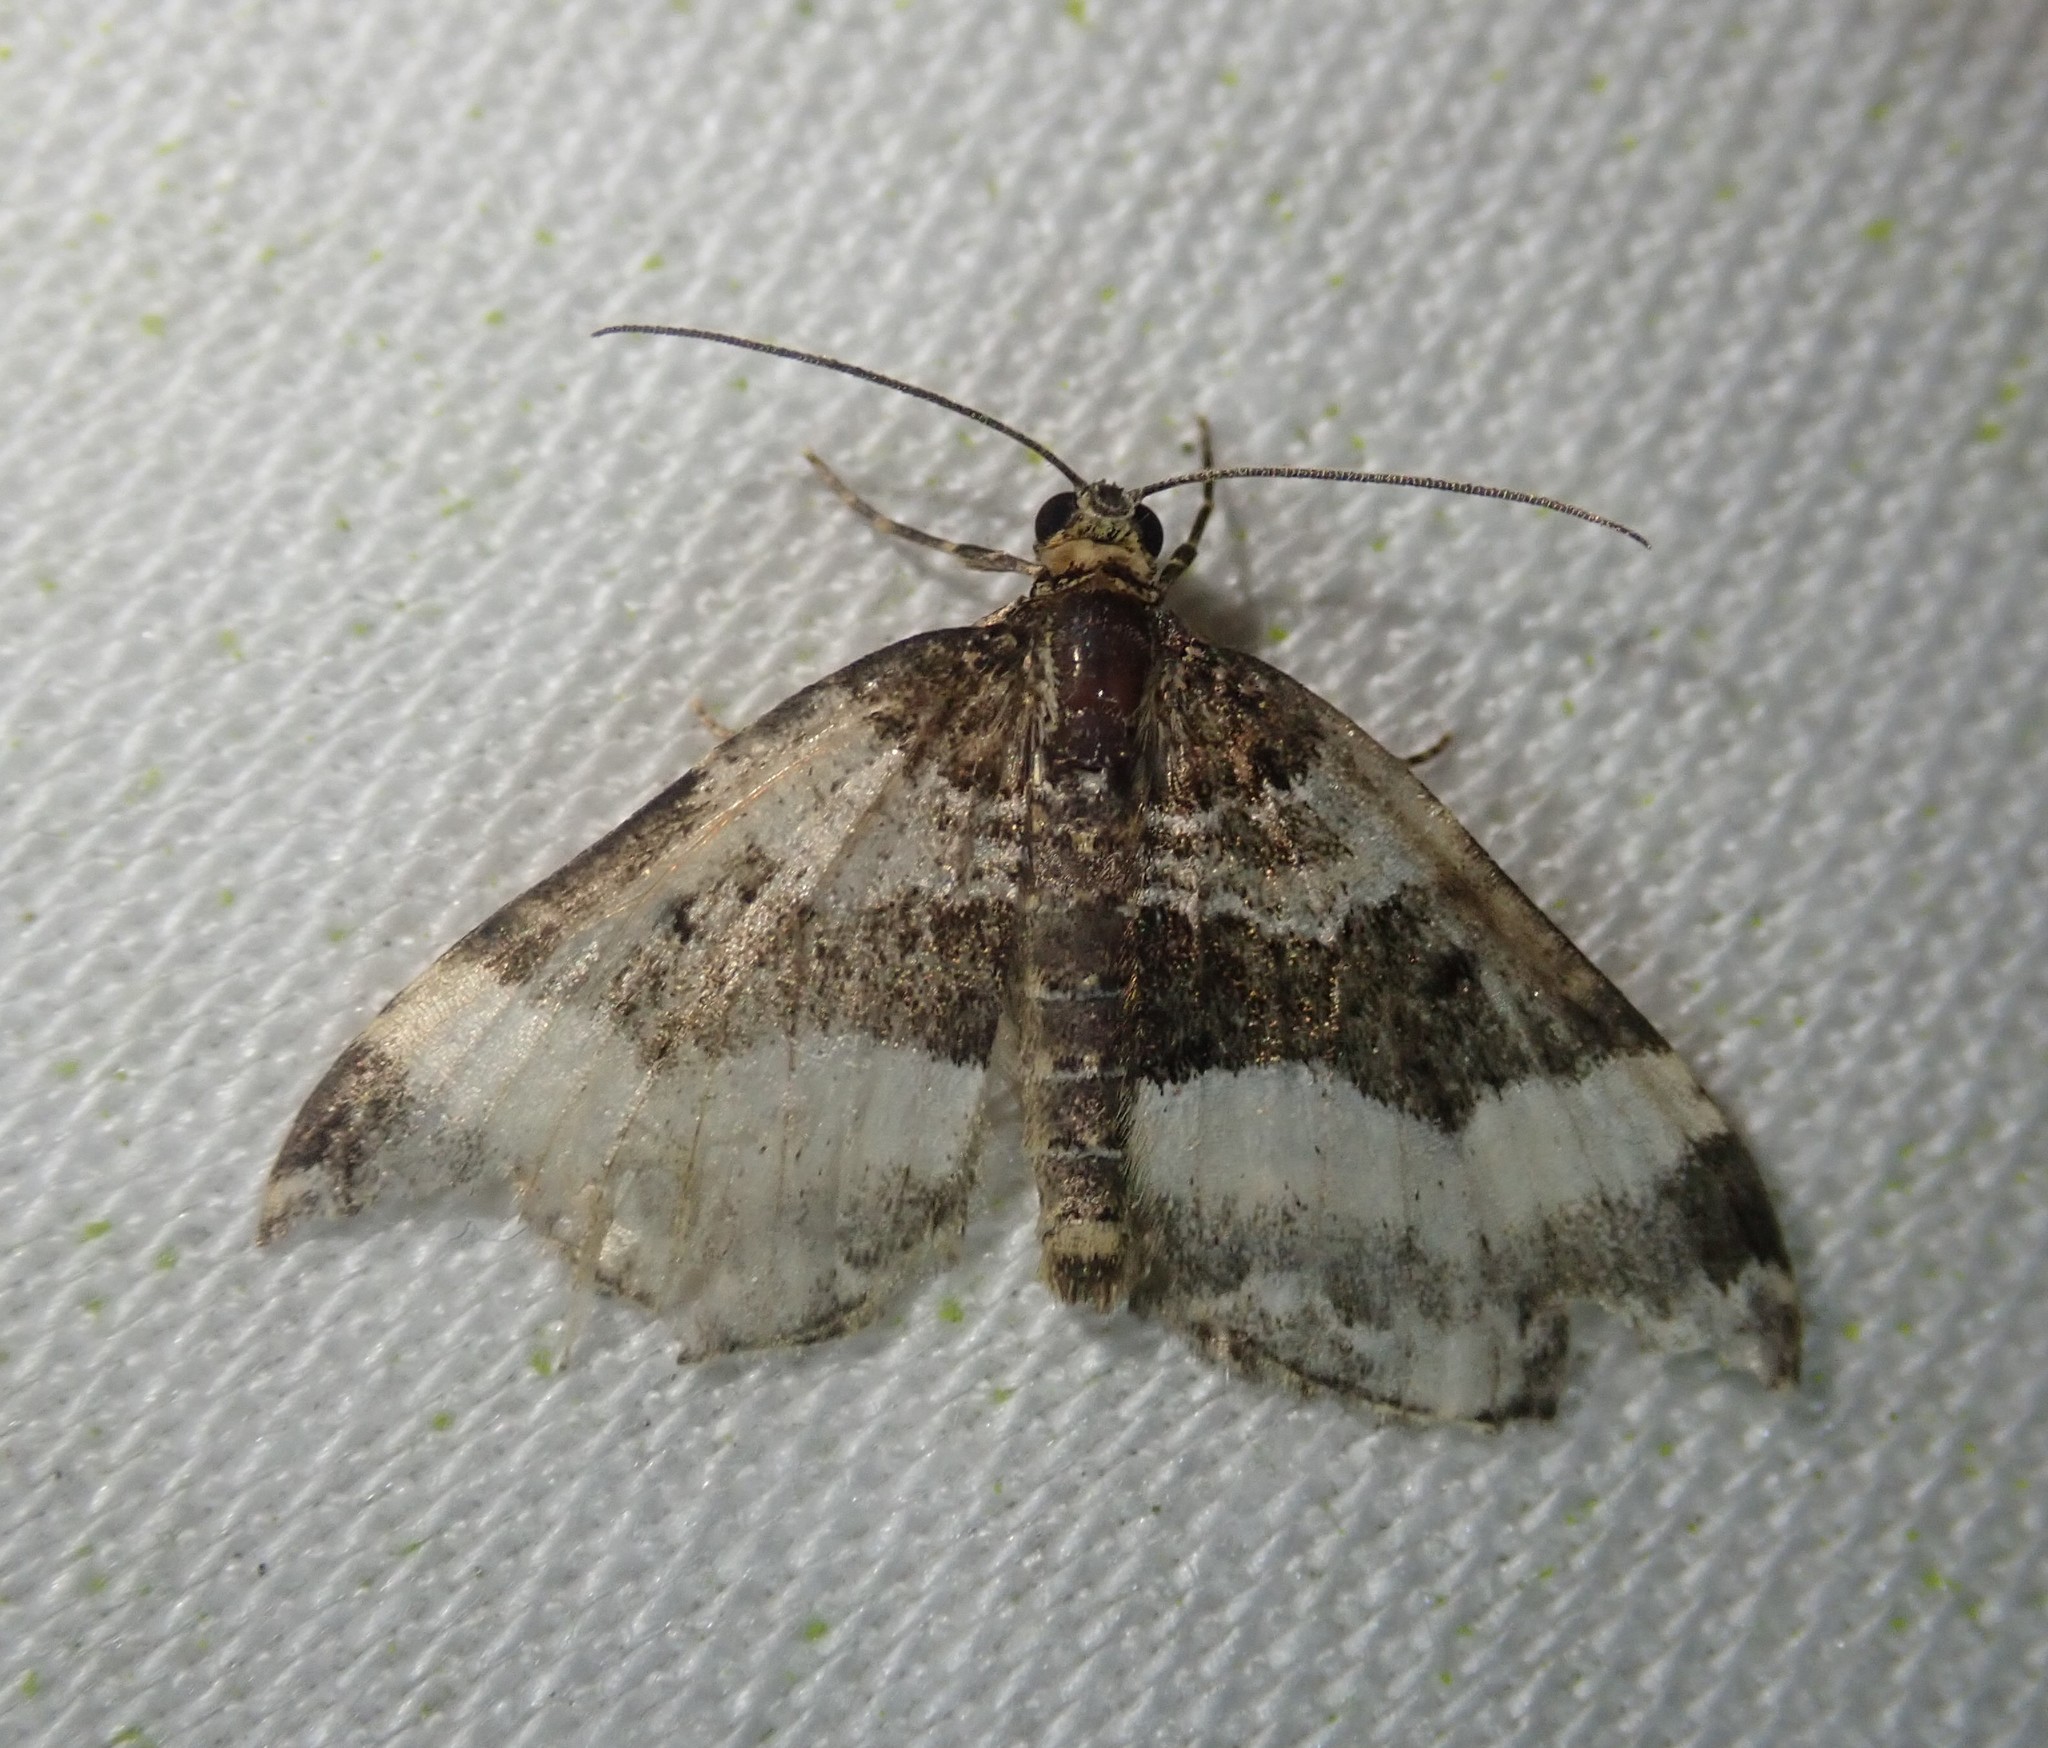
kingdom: Animalia
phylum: Arthropoda
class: Insecta
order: Lepidoptera
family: Geometridae
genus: Euphyia
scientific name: Euphyia unangulata
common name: Sharp-angled carpet
